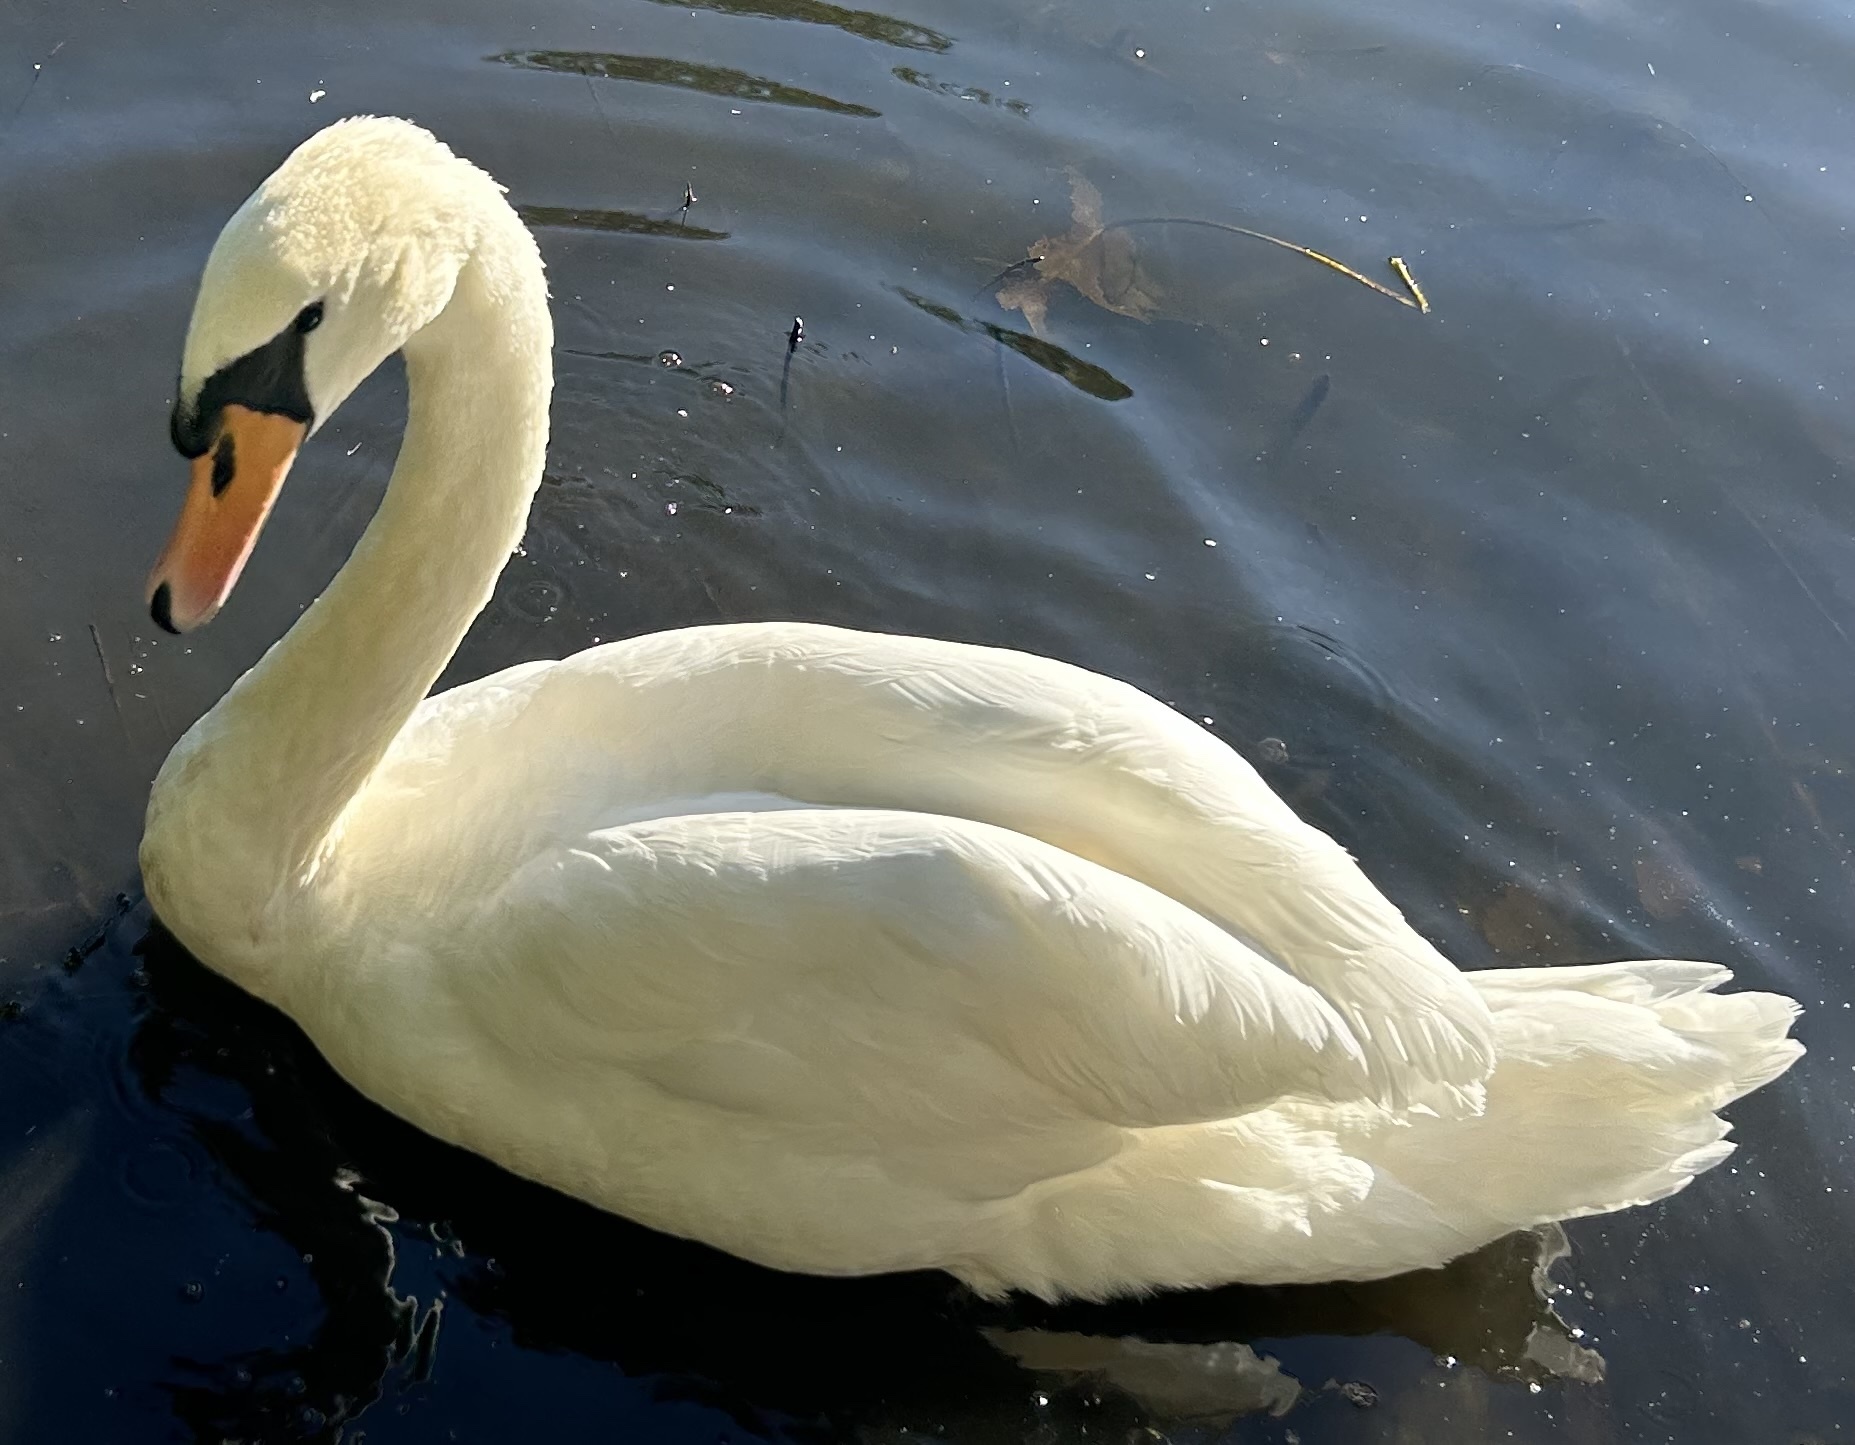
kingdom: Animalia
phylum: Chordata
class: Aves
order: Anseriformes
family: Anatidae
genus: Cygnus
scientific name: Cygnus olor
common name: Mute swan
